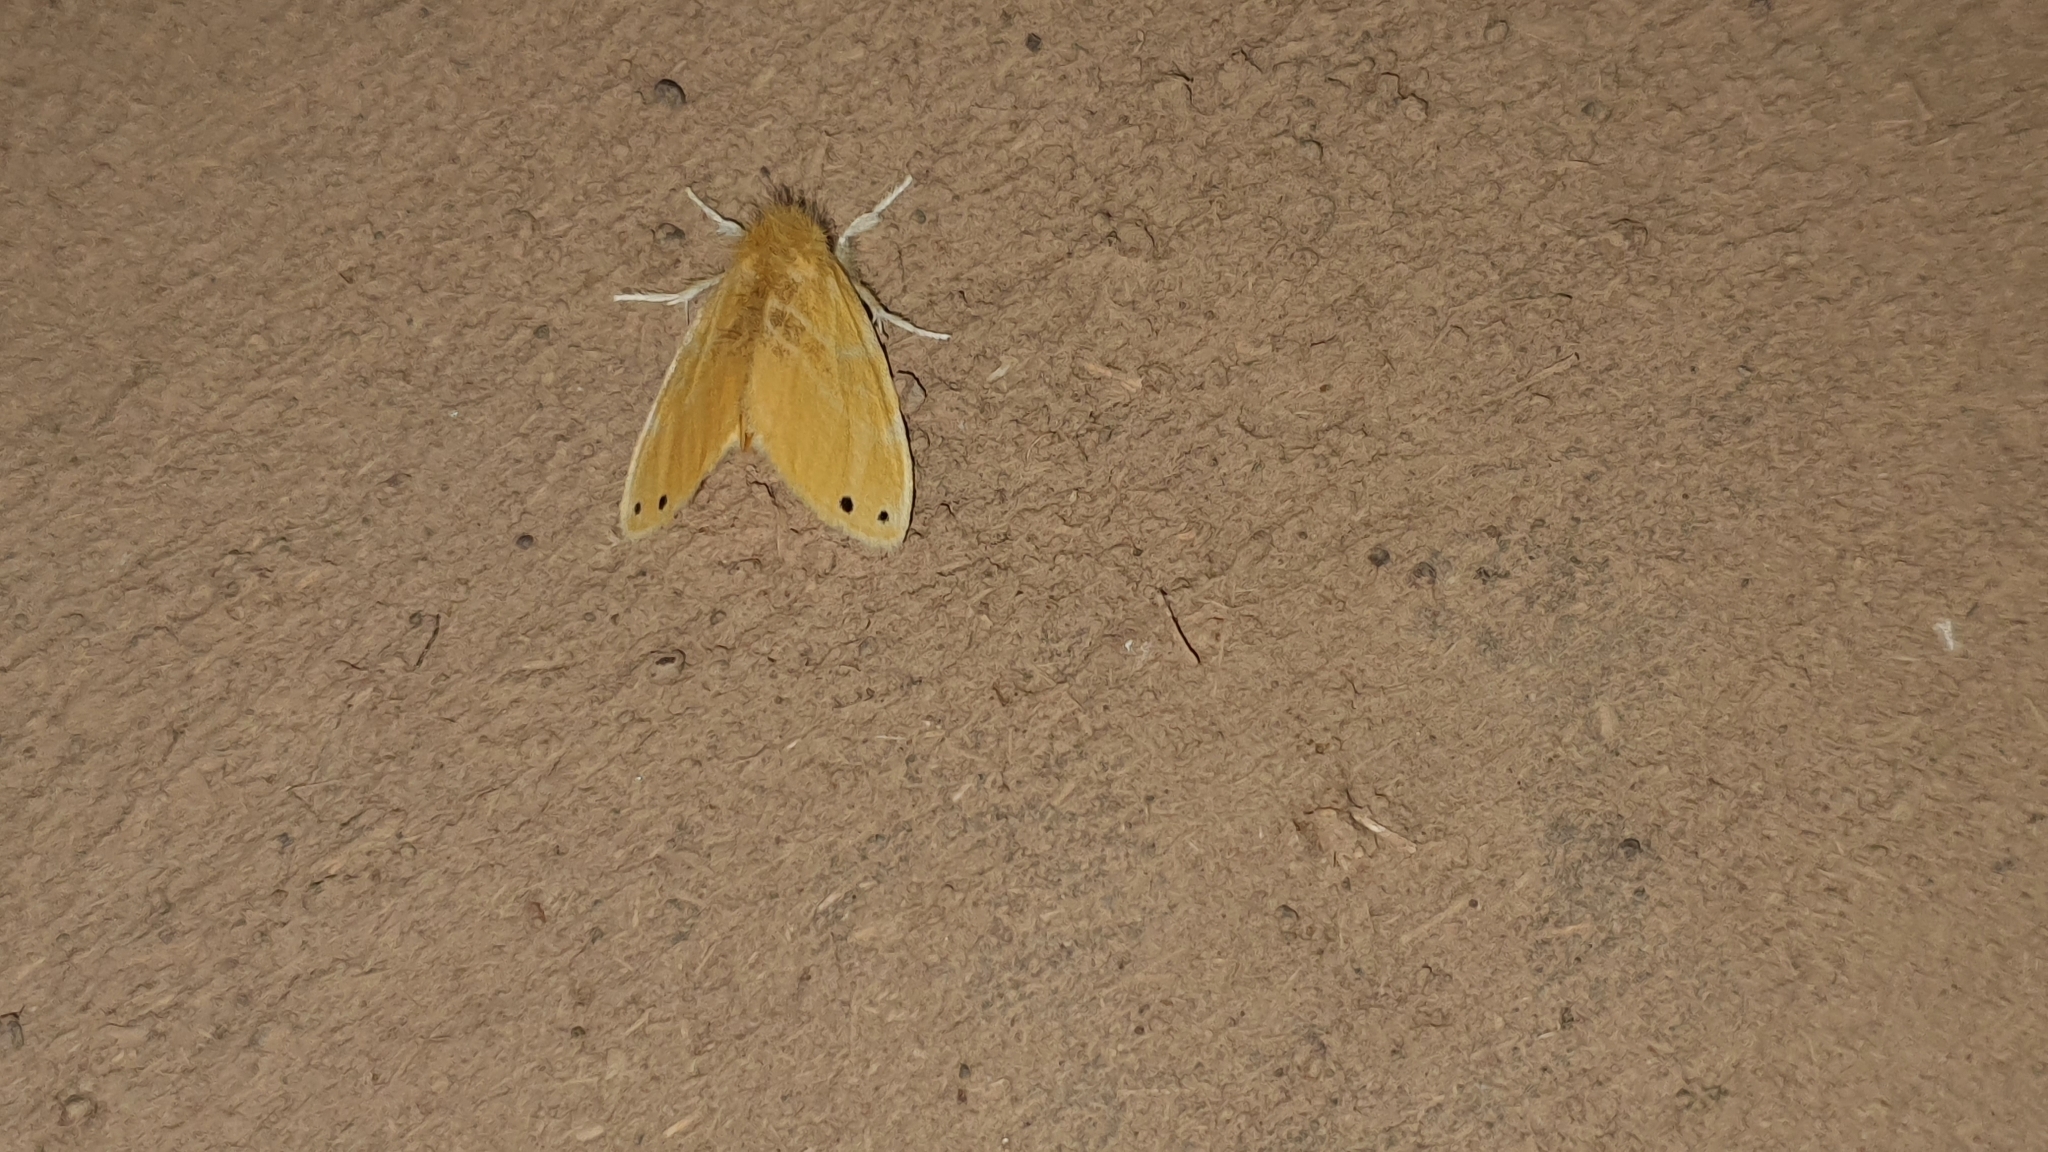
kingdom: Animalia
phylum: Arthropoda
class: Insecta
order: Lepidoptera
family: Erebidae
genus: Artaxa
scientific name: Artaxa digramma
